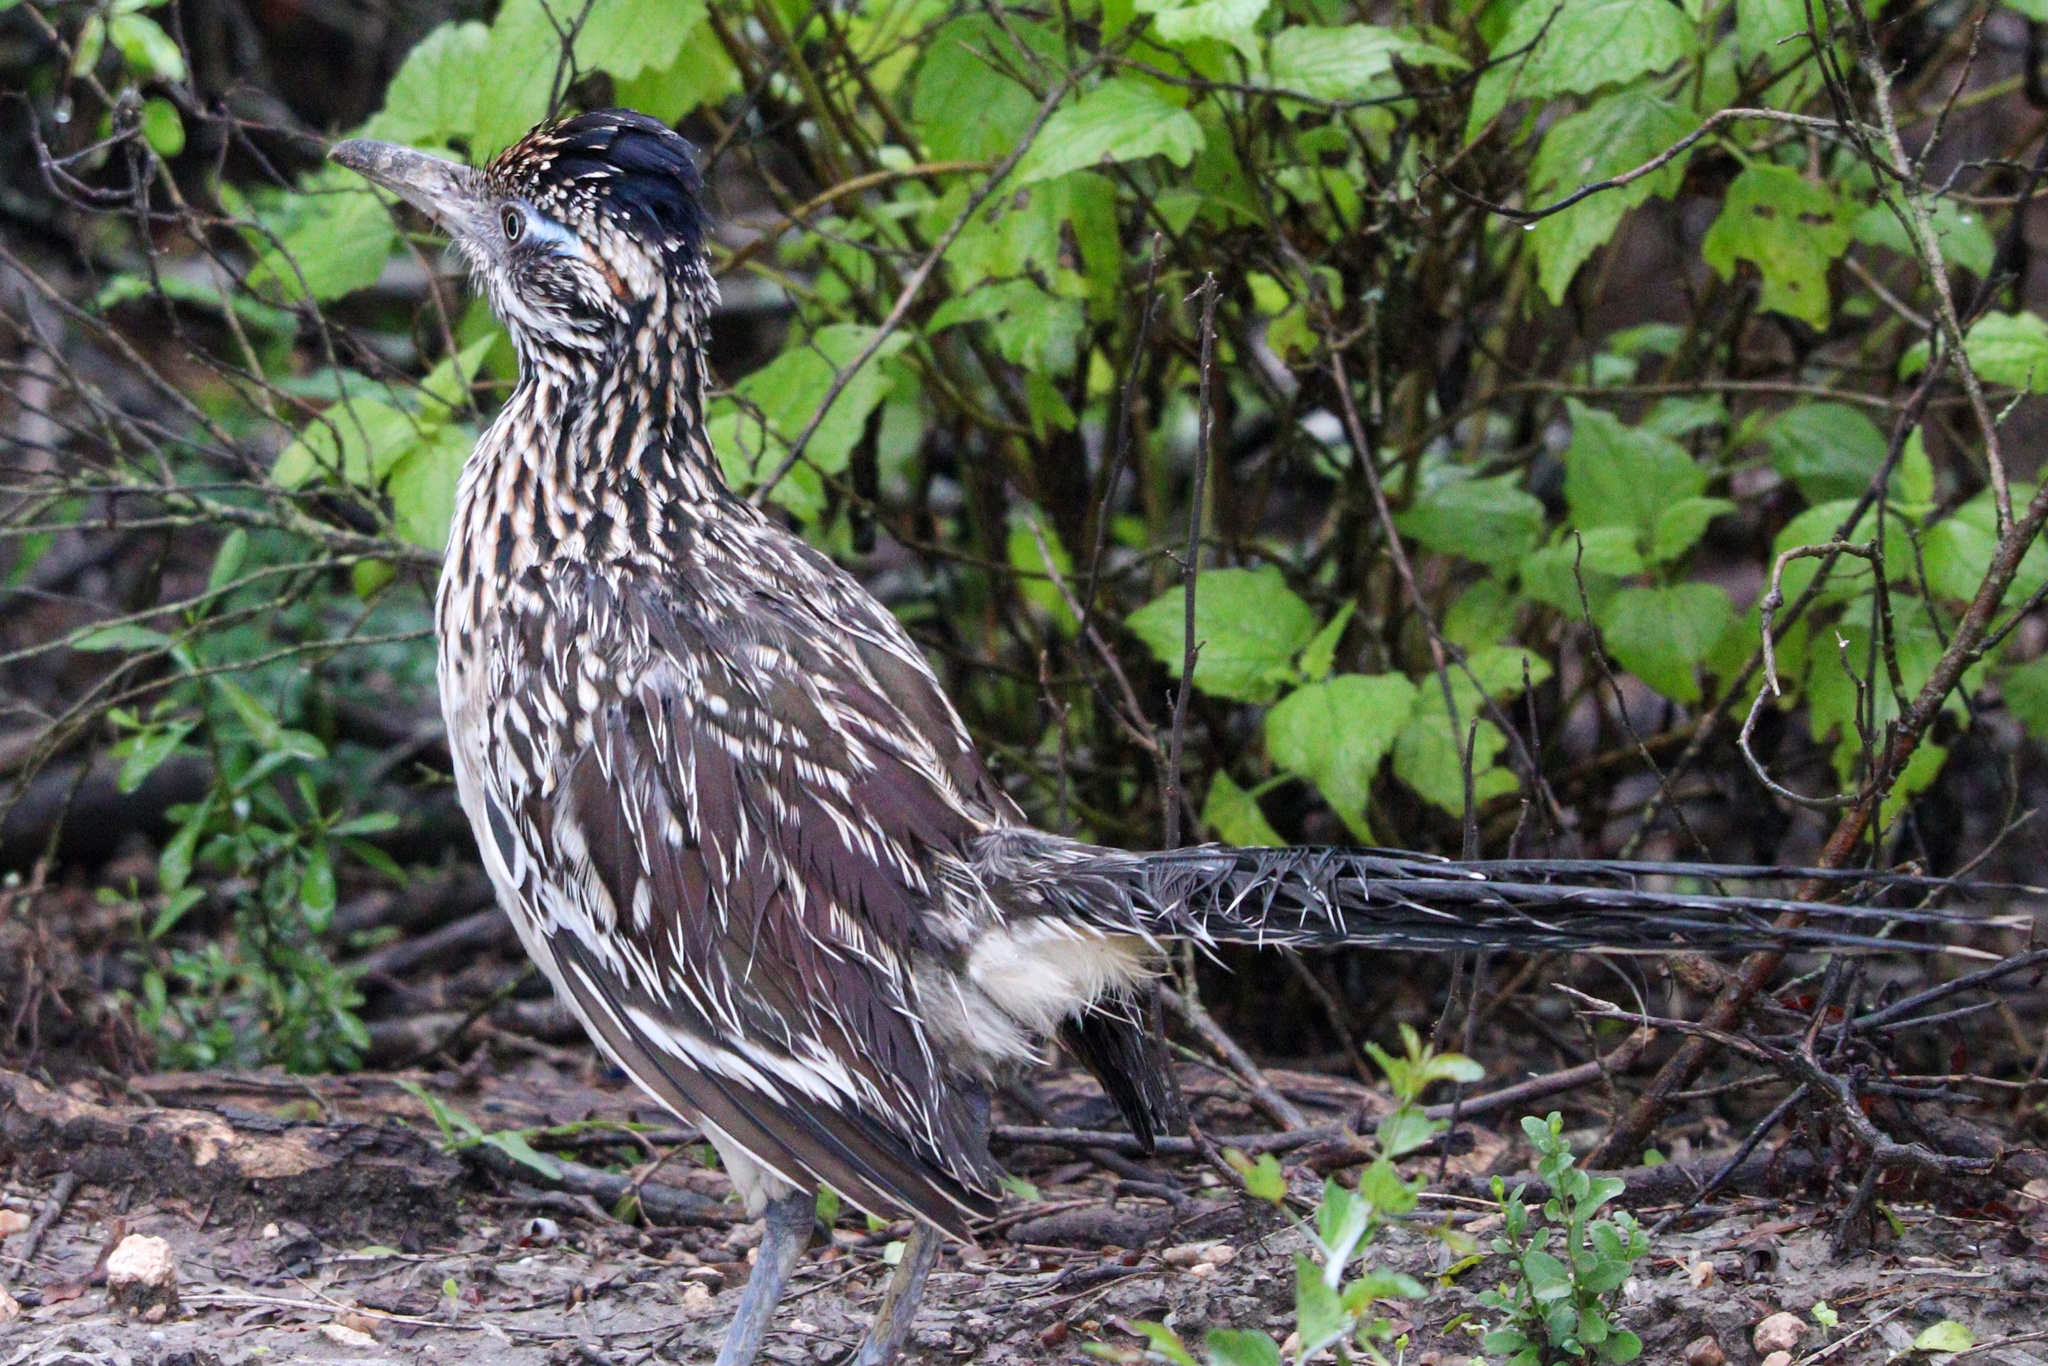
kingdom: Animalia
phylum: Chordata
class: Aves
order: Cuculiformes
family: Cuculidae
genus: Geococcyx
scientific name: Geococcyx californianus
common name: Greater roadrunner
